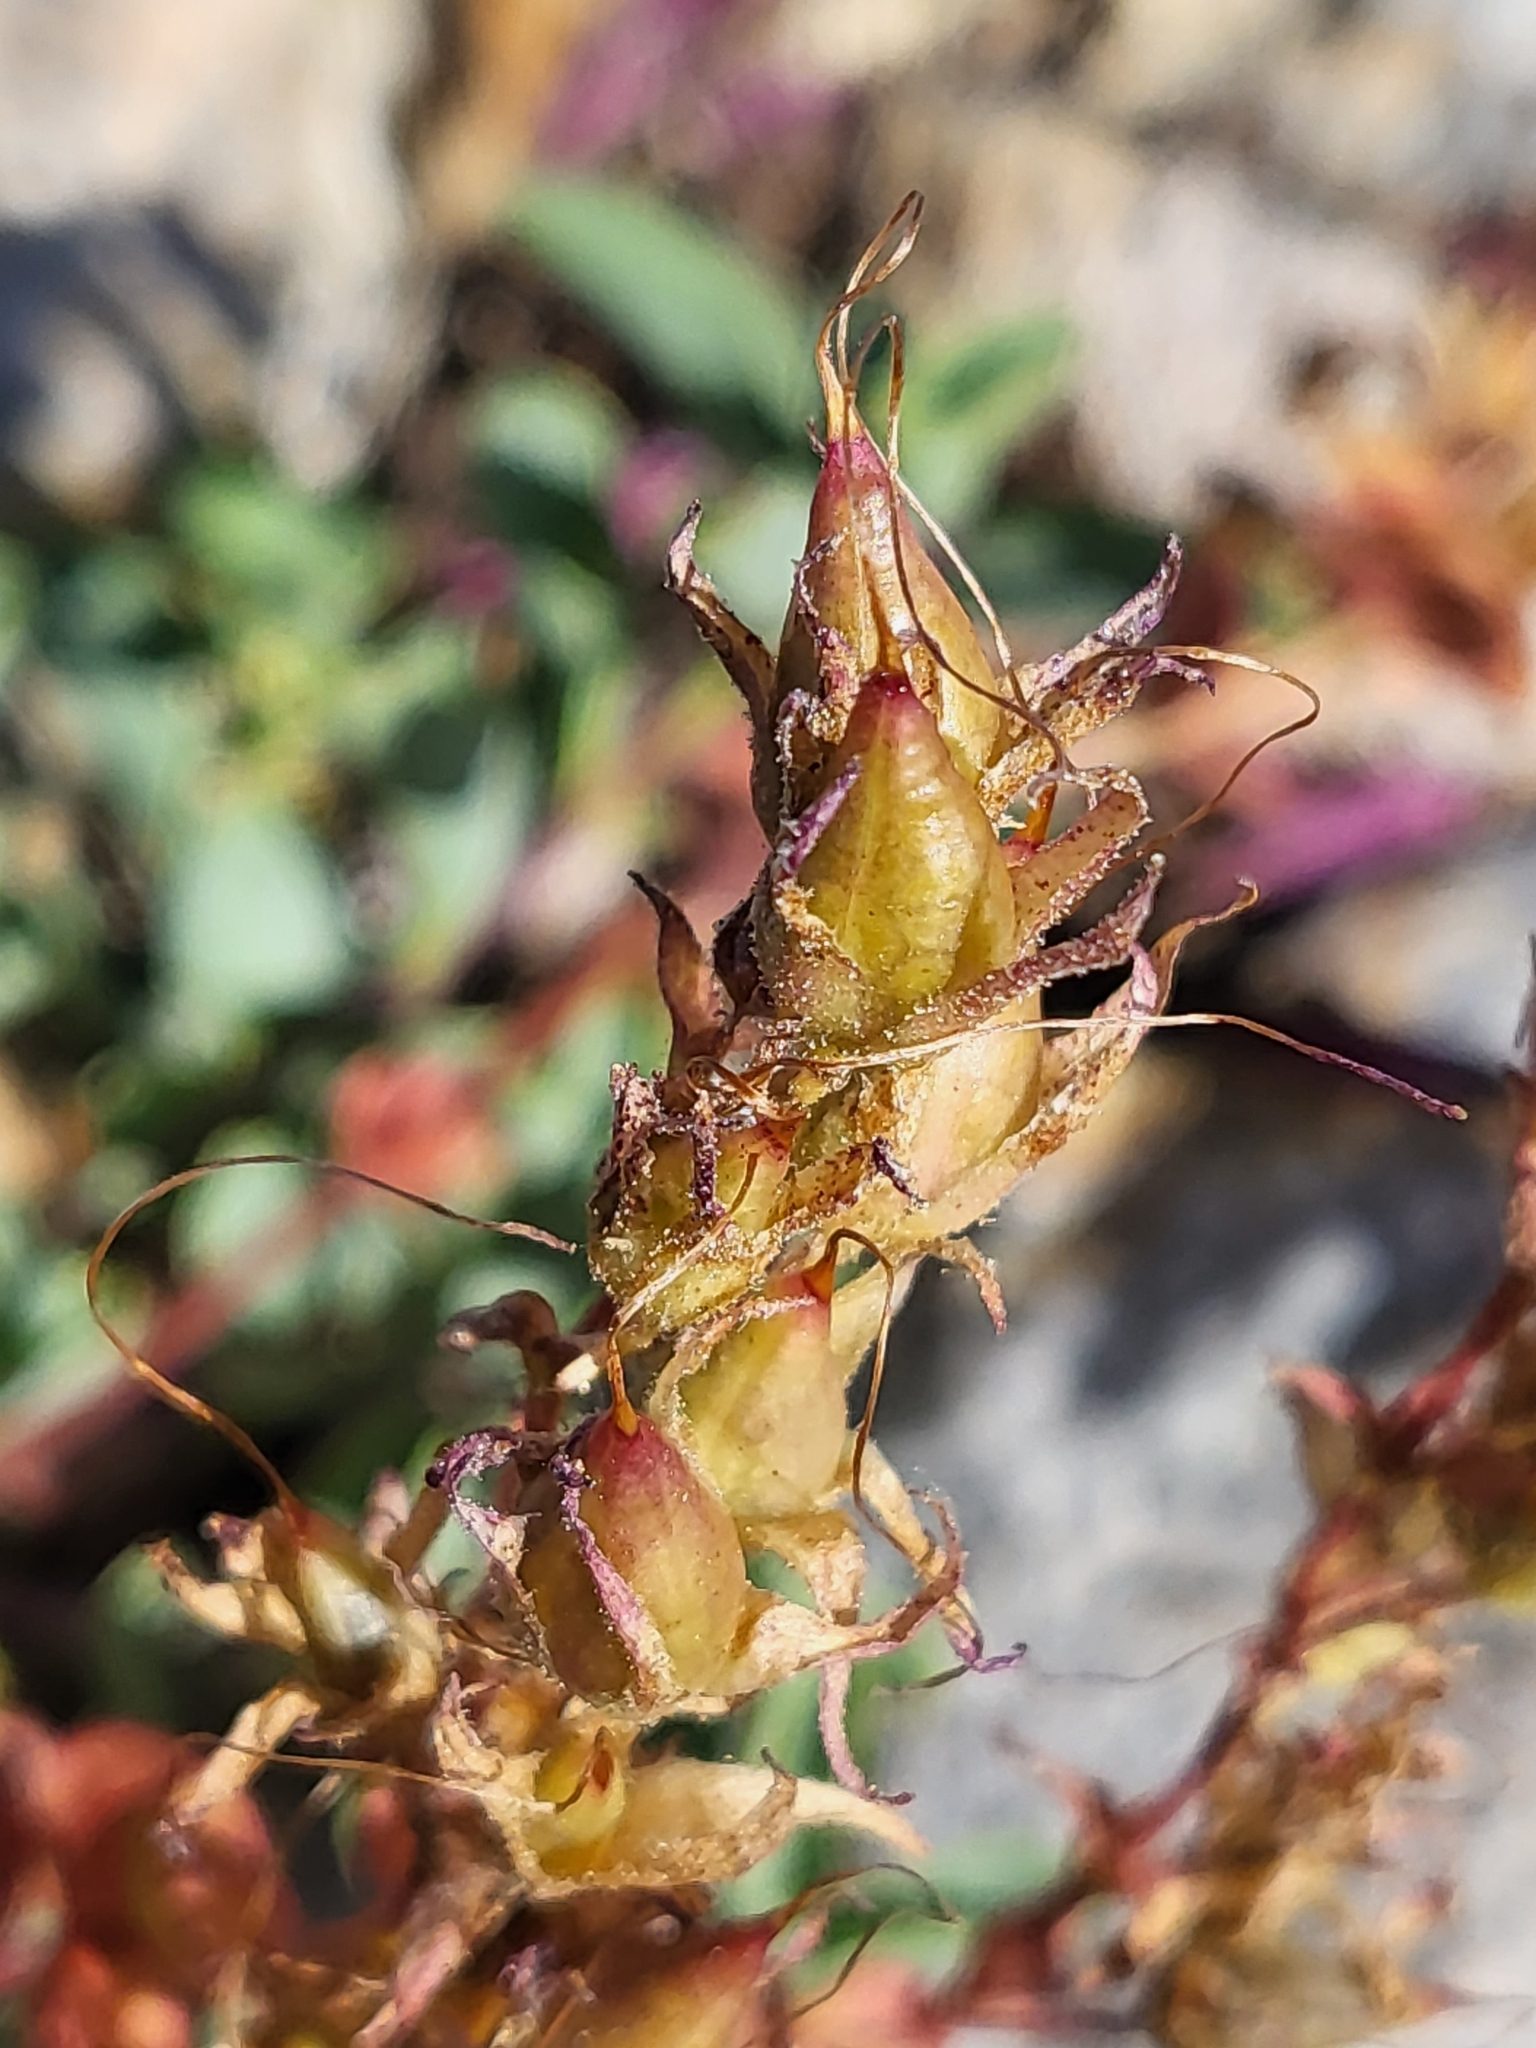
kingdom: Plantae
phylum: Tracheophyta
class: Magnoliopsida
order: Lamiales
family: Plantaginaceae
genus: Penstemon
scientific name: Penstemon newberryi
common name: Mountain-pride
